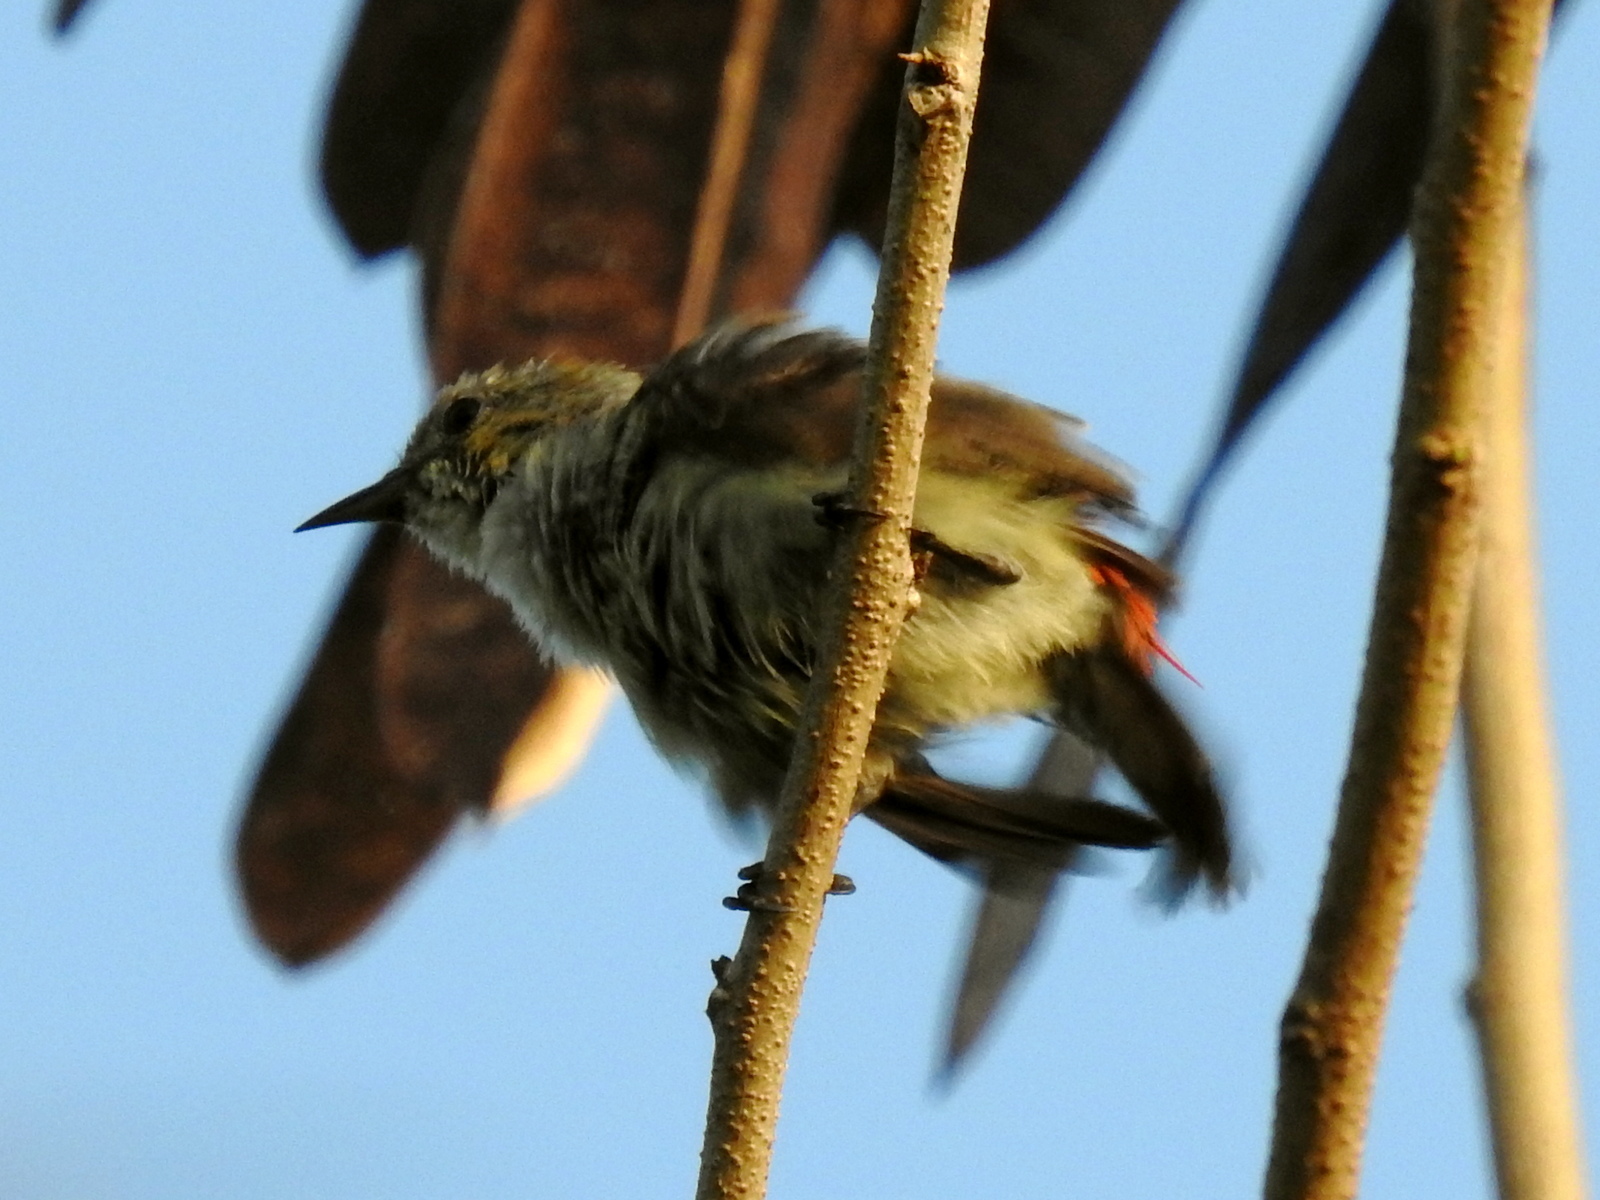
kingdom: Animalia
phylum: Chordata
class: Aves
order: Passeriformes
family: Dicaeidae
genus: Dicaeum
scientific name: Dicaeum trochileum
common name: Scarlet-headed flowerpecker
